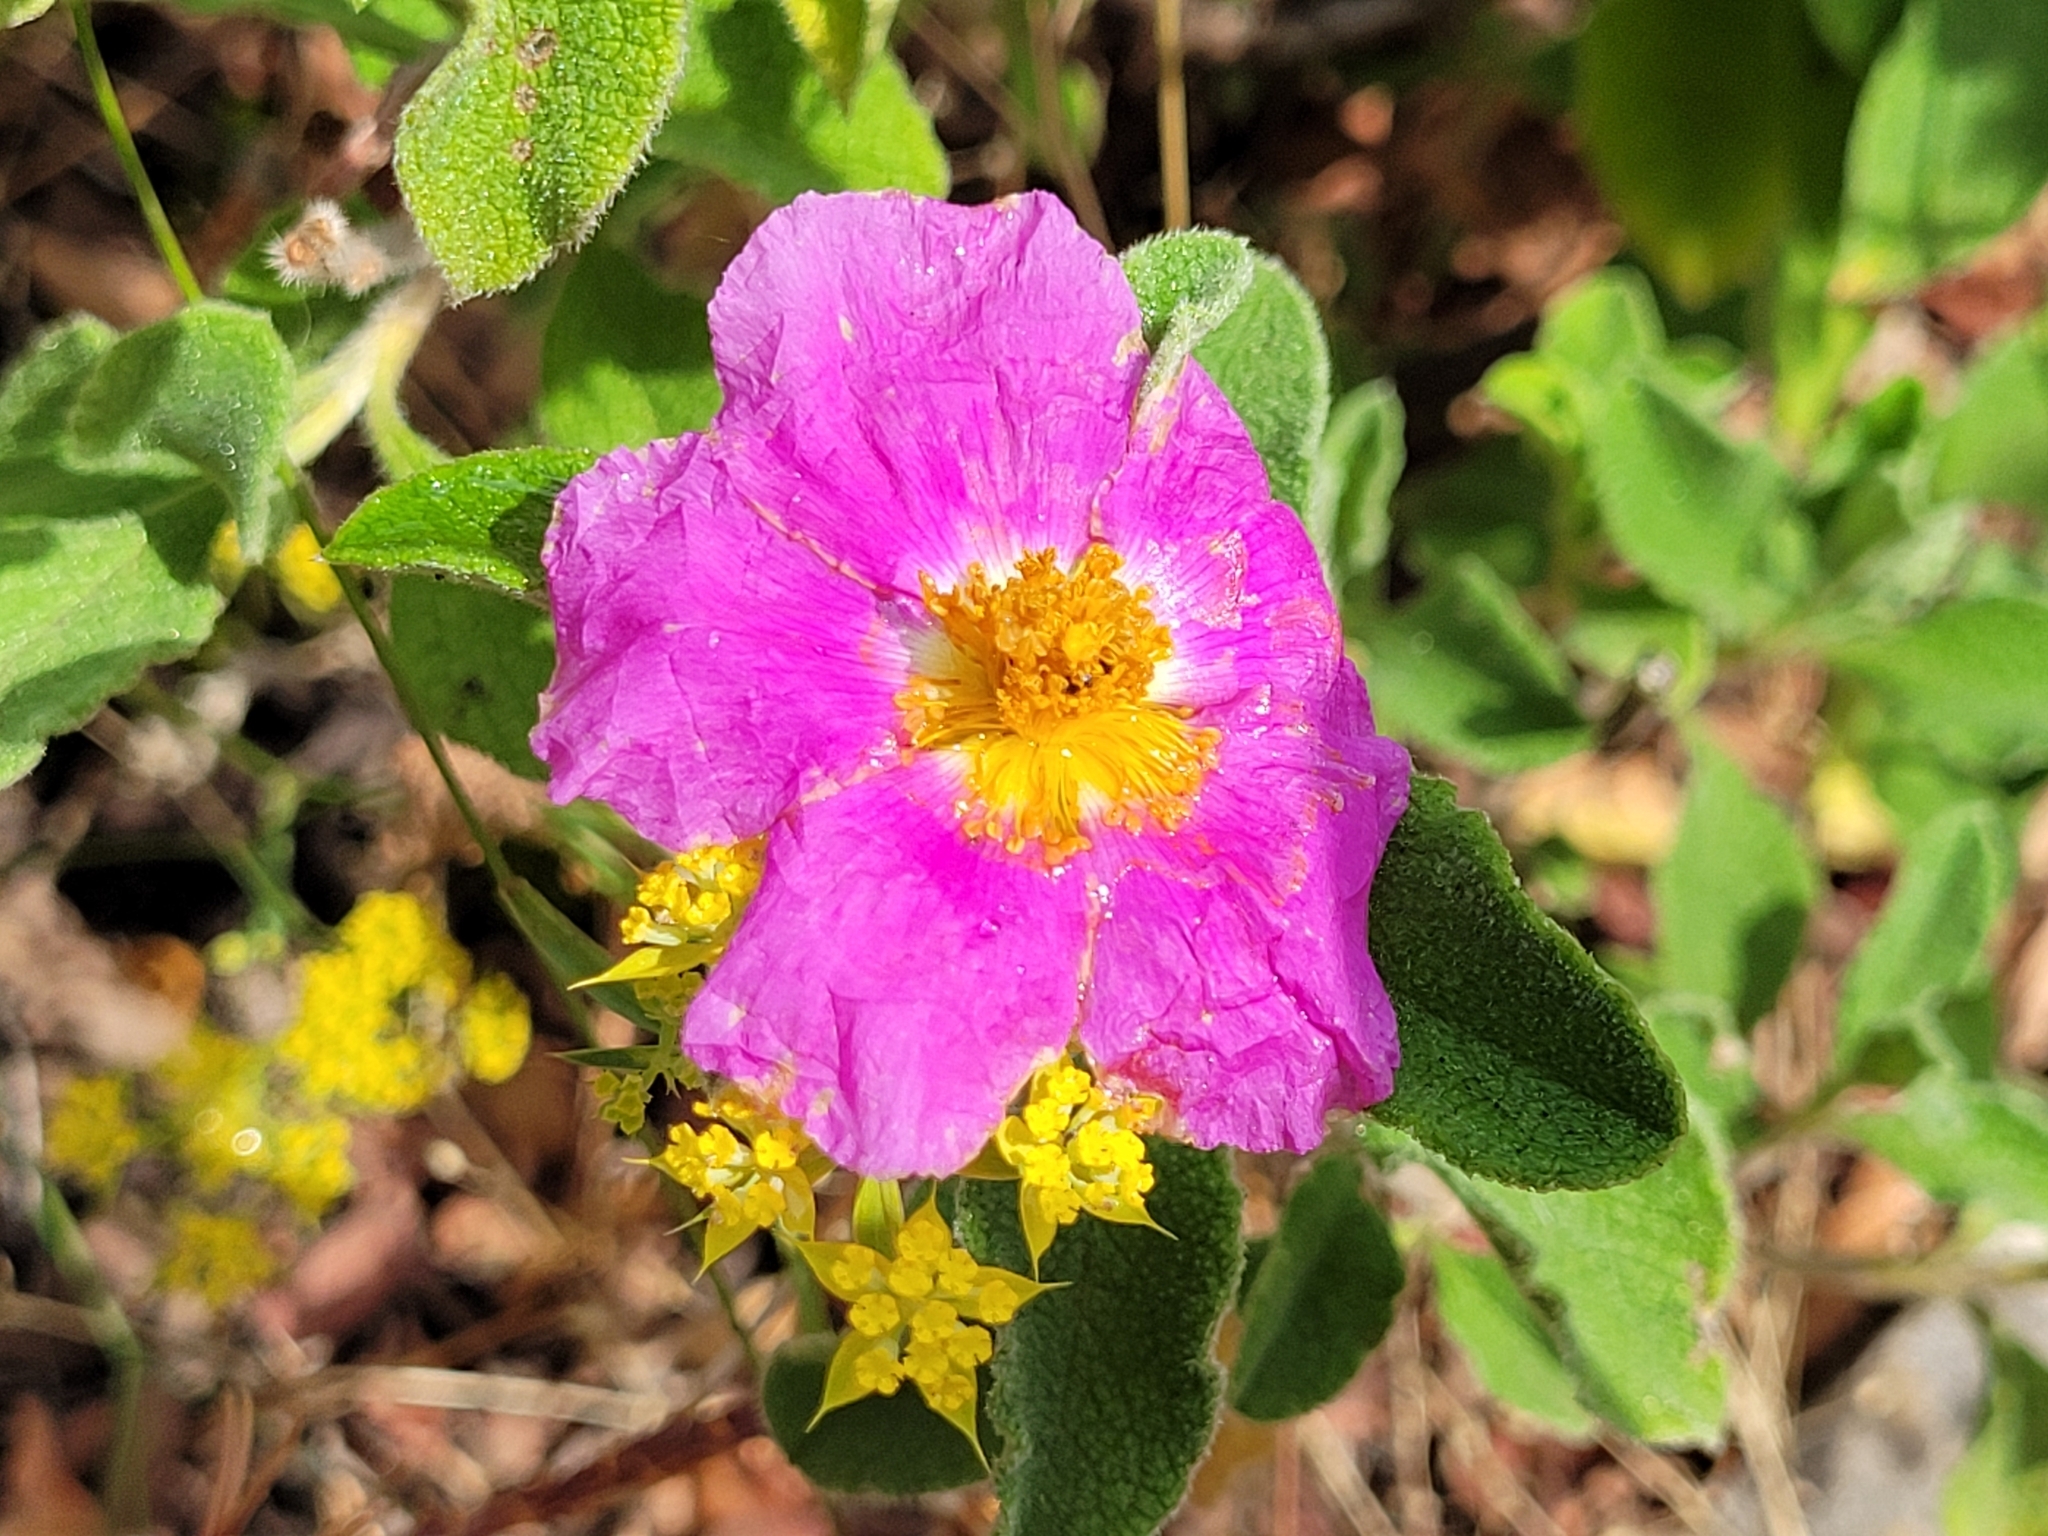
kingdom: Plantae
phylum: Tracheophyta
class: Magnoliopsida
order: Malvales
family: Cistaceae
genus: Cistus
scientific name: Cistus creticus
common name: Cretan rockrose
